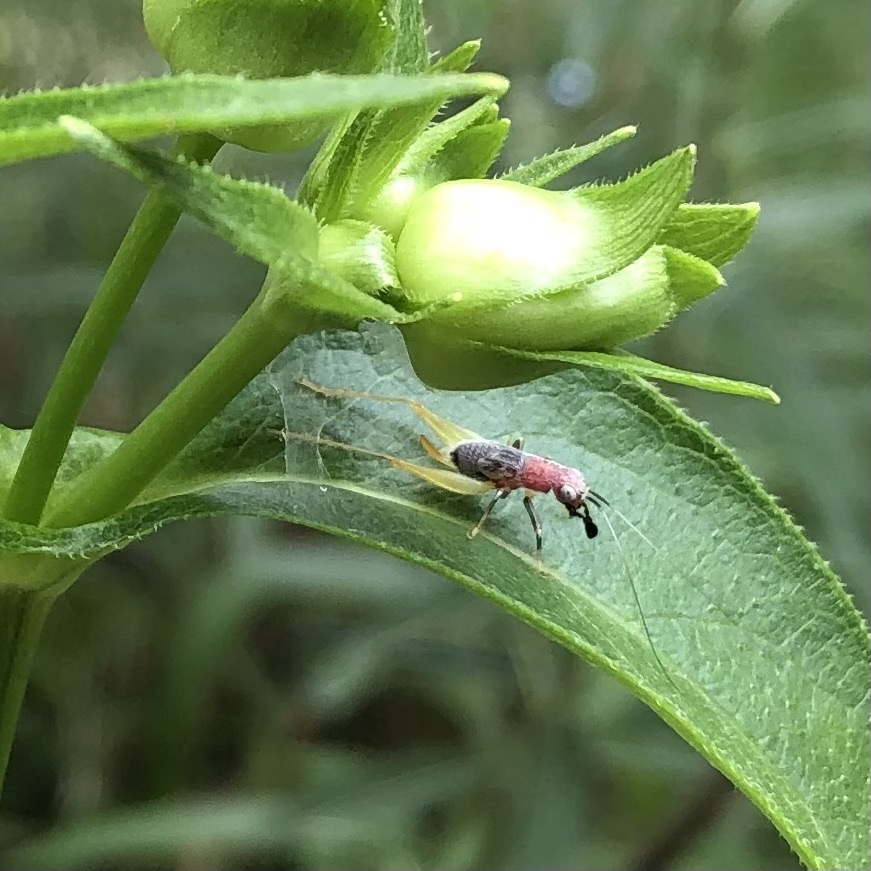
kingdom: Animalia
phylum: Arthropoda
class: Insecta
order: Orthoptera
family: Trigonidiidae
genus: Phyllopalpus
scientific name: Phyllopalpus pulchellus
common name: Handsome trig
